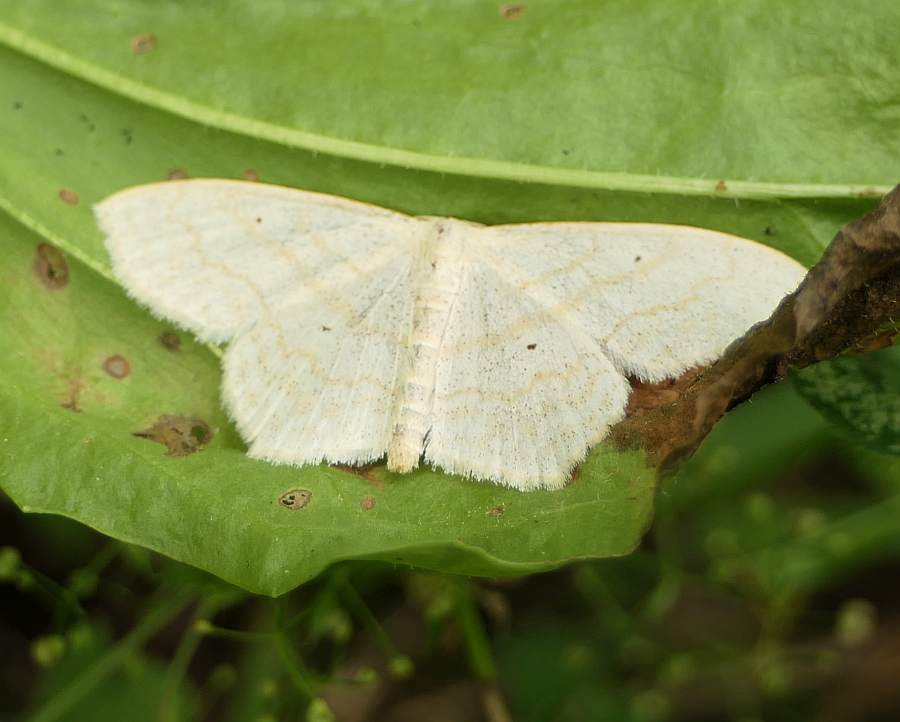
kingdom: Animalia
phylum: Arthropoda
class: Insecta
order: Lepidoptera
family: Geometridae
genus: Scopula
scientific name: Scopula limboundata
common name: Large lace border
